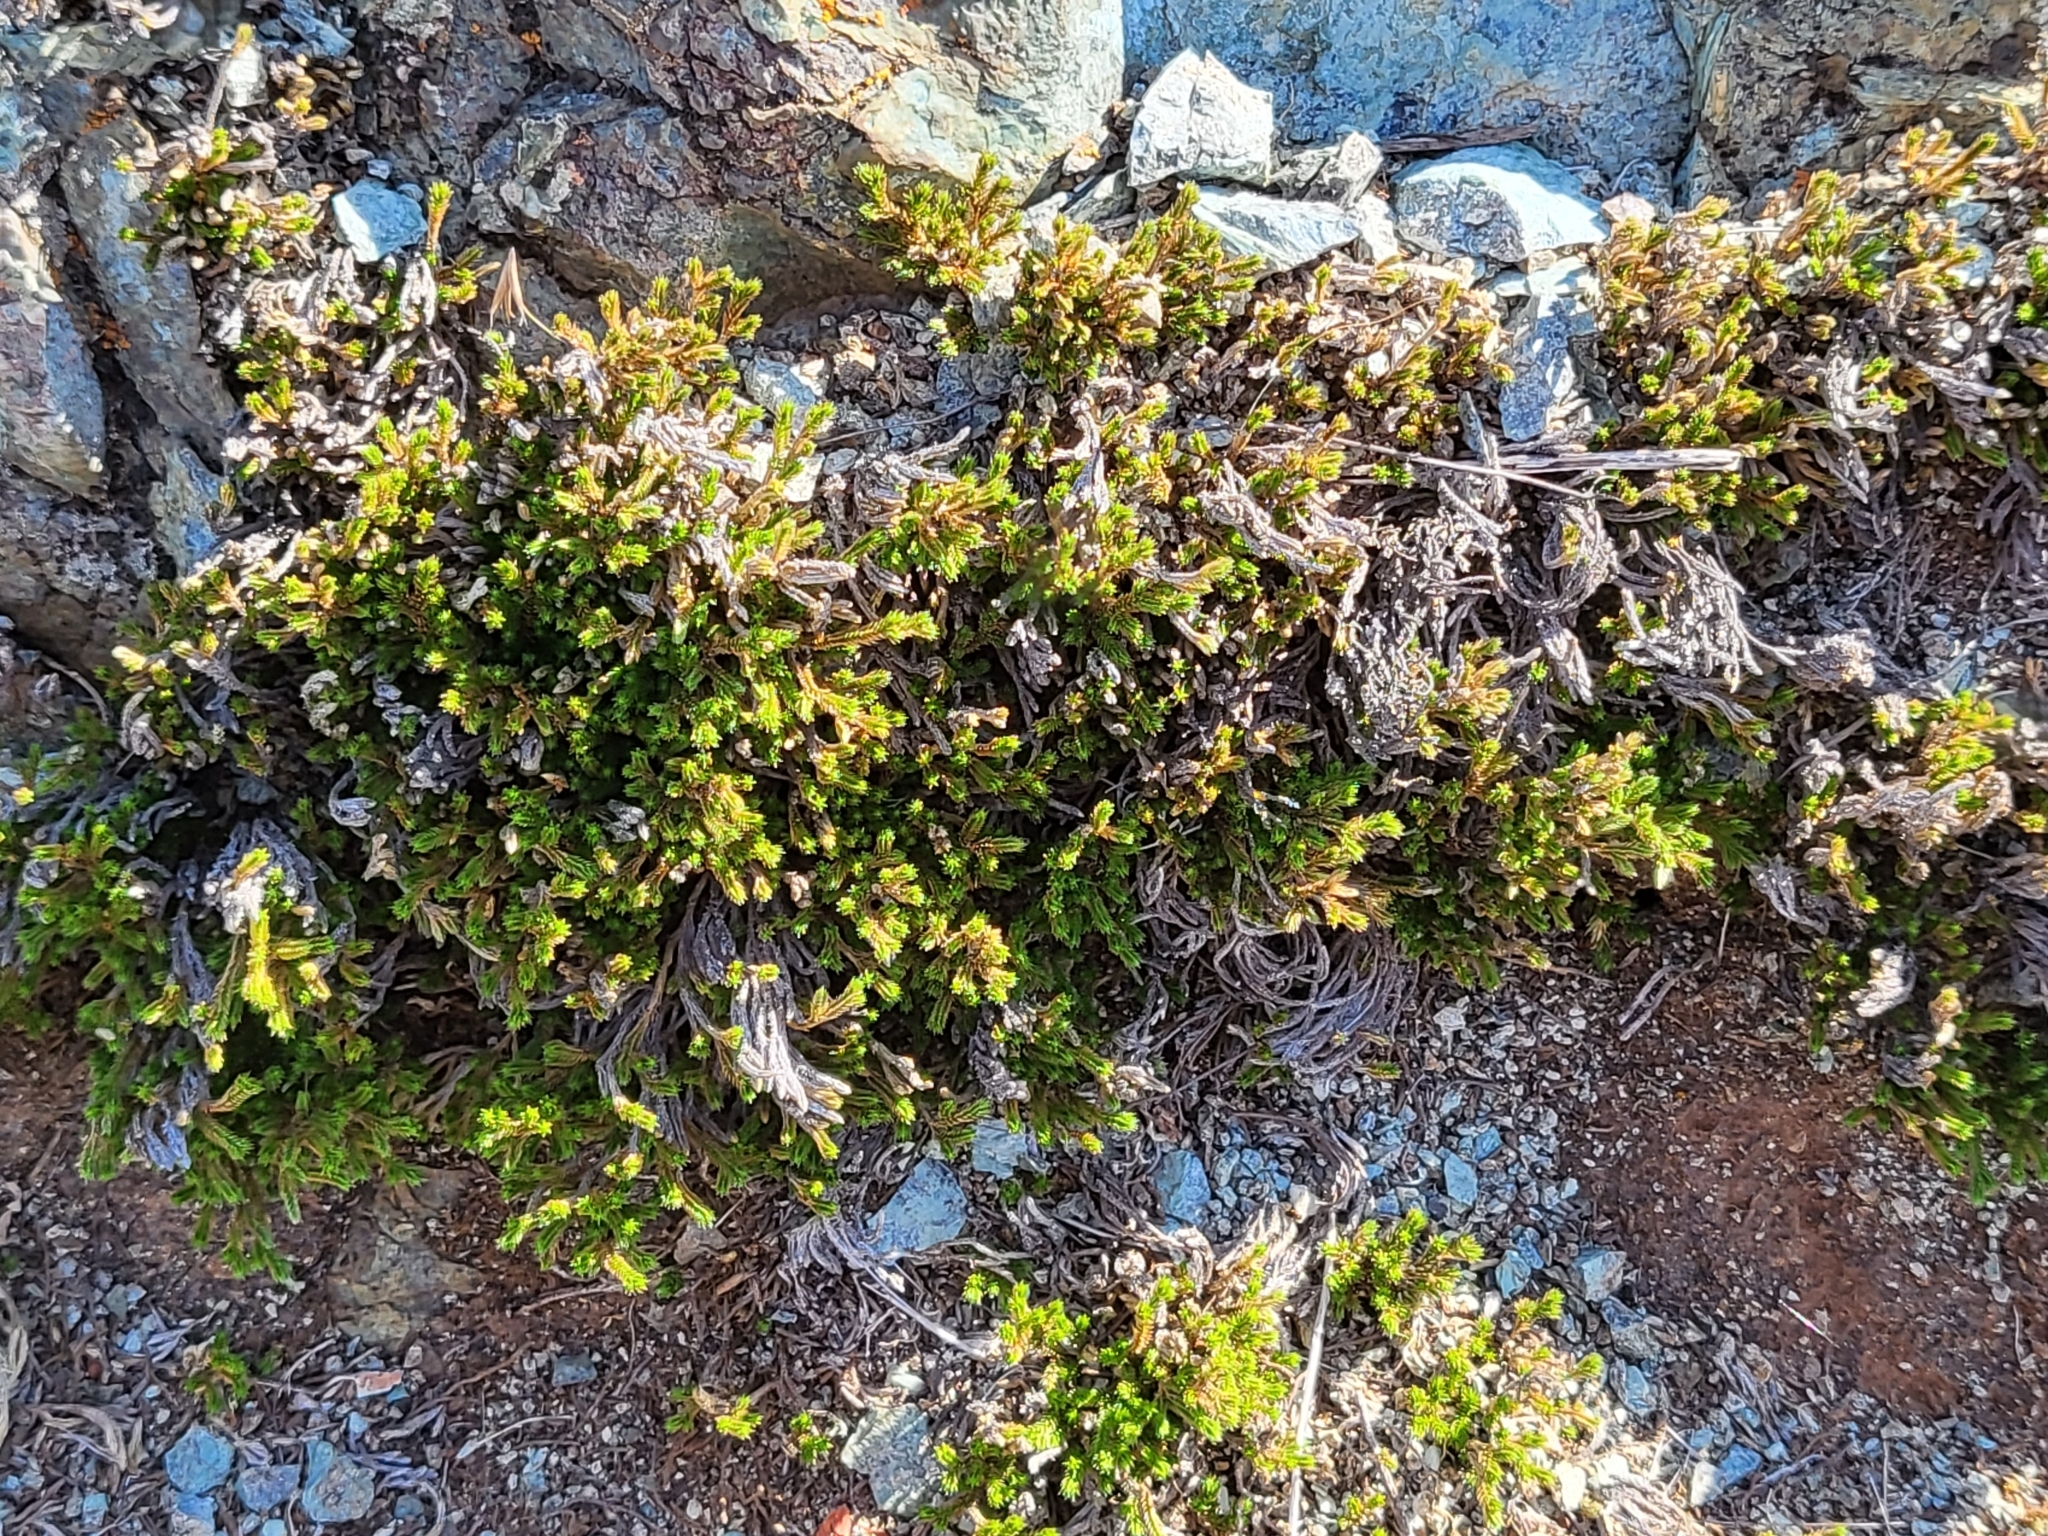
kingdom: Plantae
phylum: Tracheophyta
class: Lycopodiopsida
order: Selaginellales
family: Selaginellaceae
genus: Selaginella
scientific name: Selaginella bigelovii
